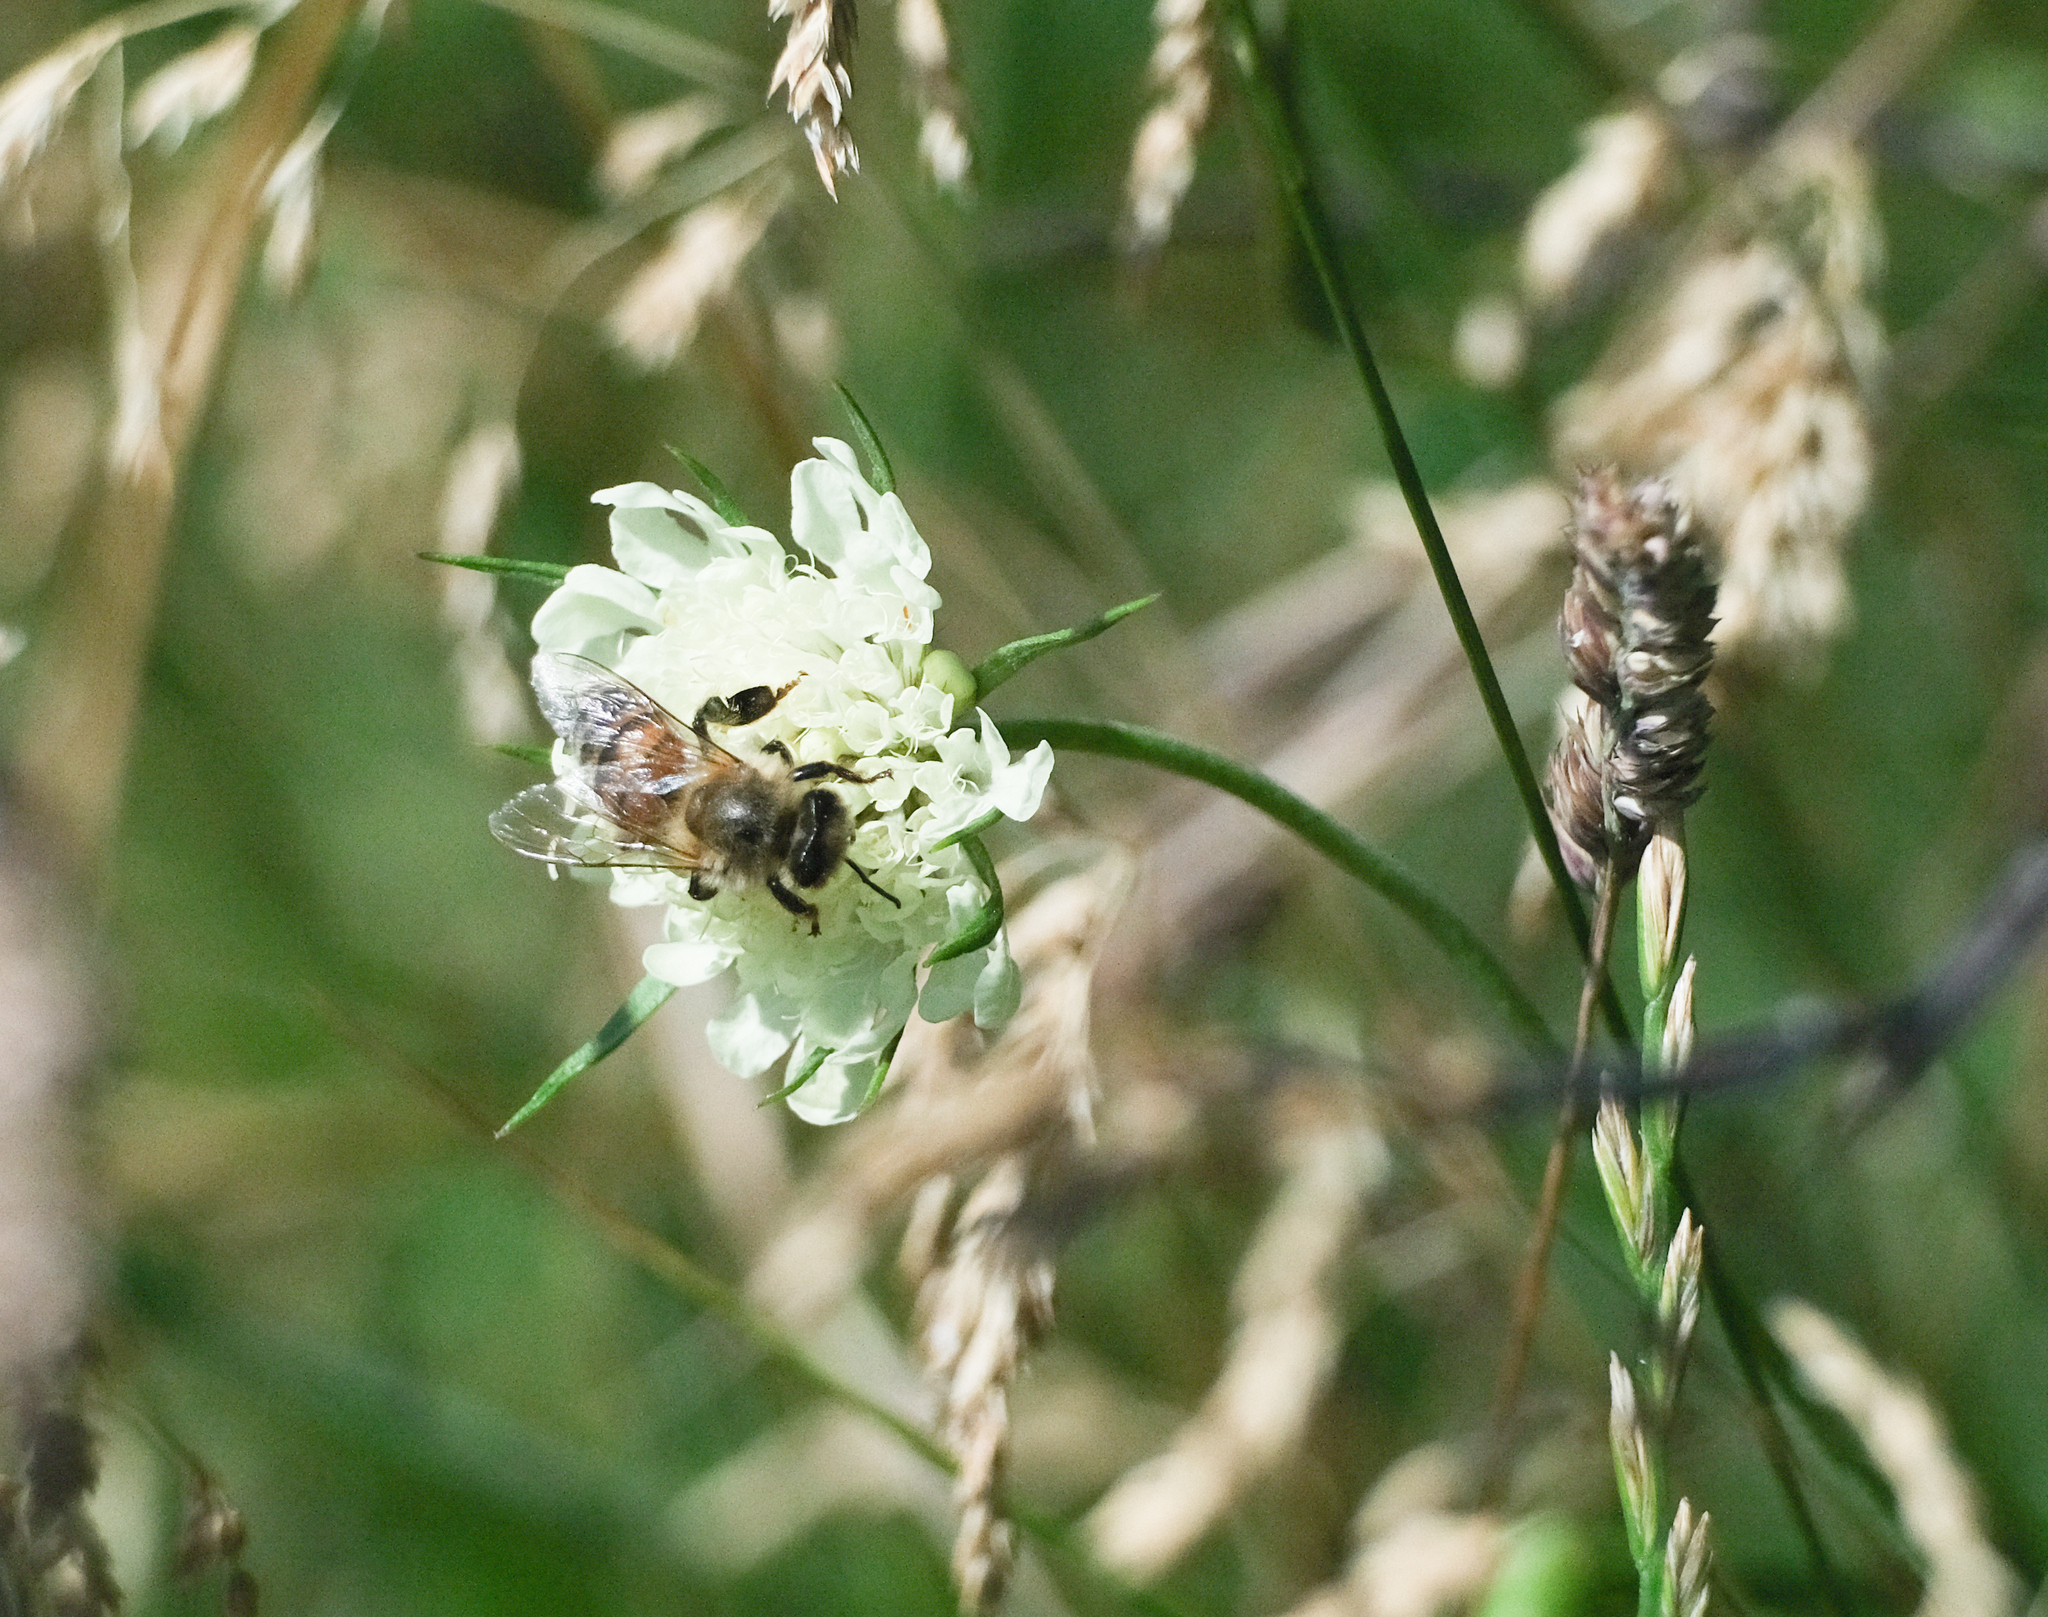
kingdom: Animalia
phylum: Arthropoda
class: Insecta
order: Hymenoptera
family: Apidae
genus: Apis
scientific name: Apis mellifera
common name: Honey bee
